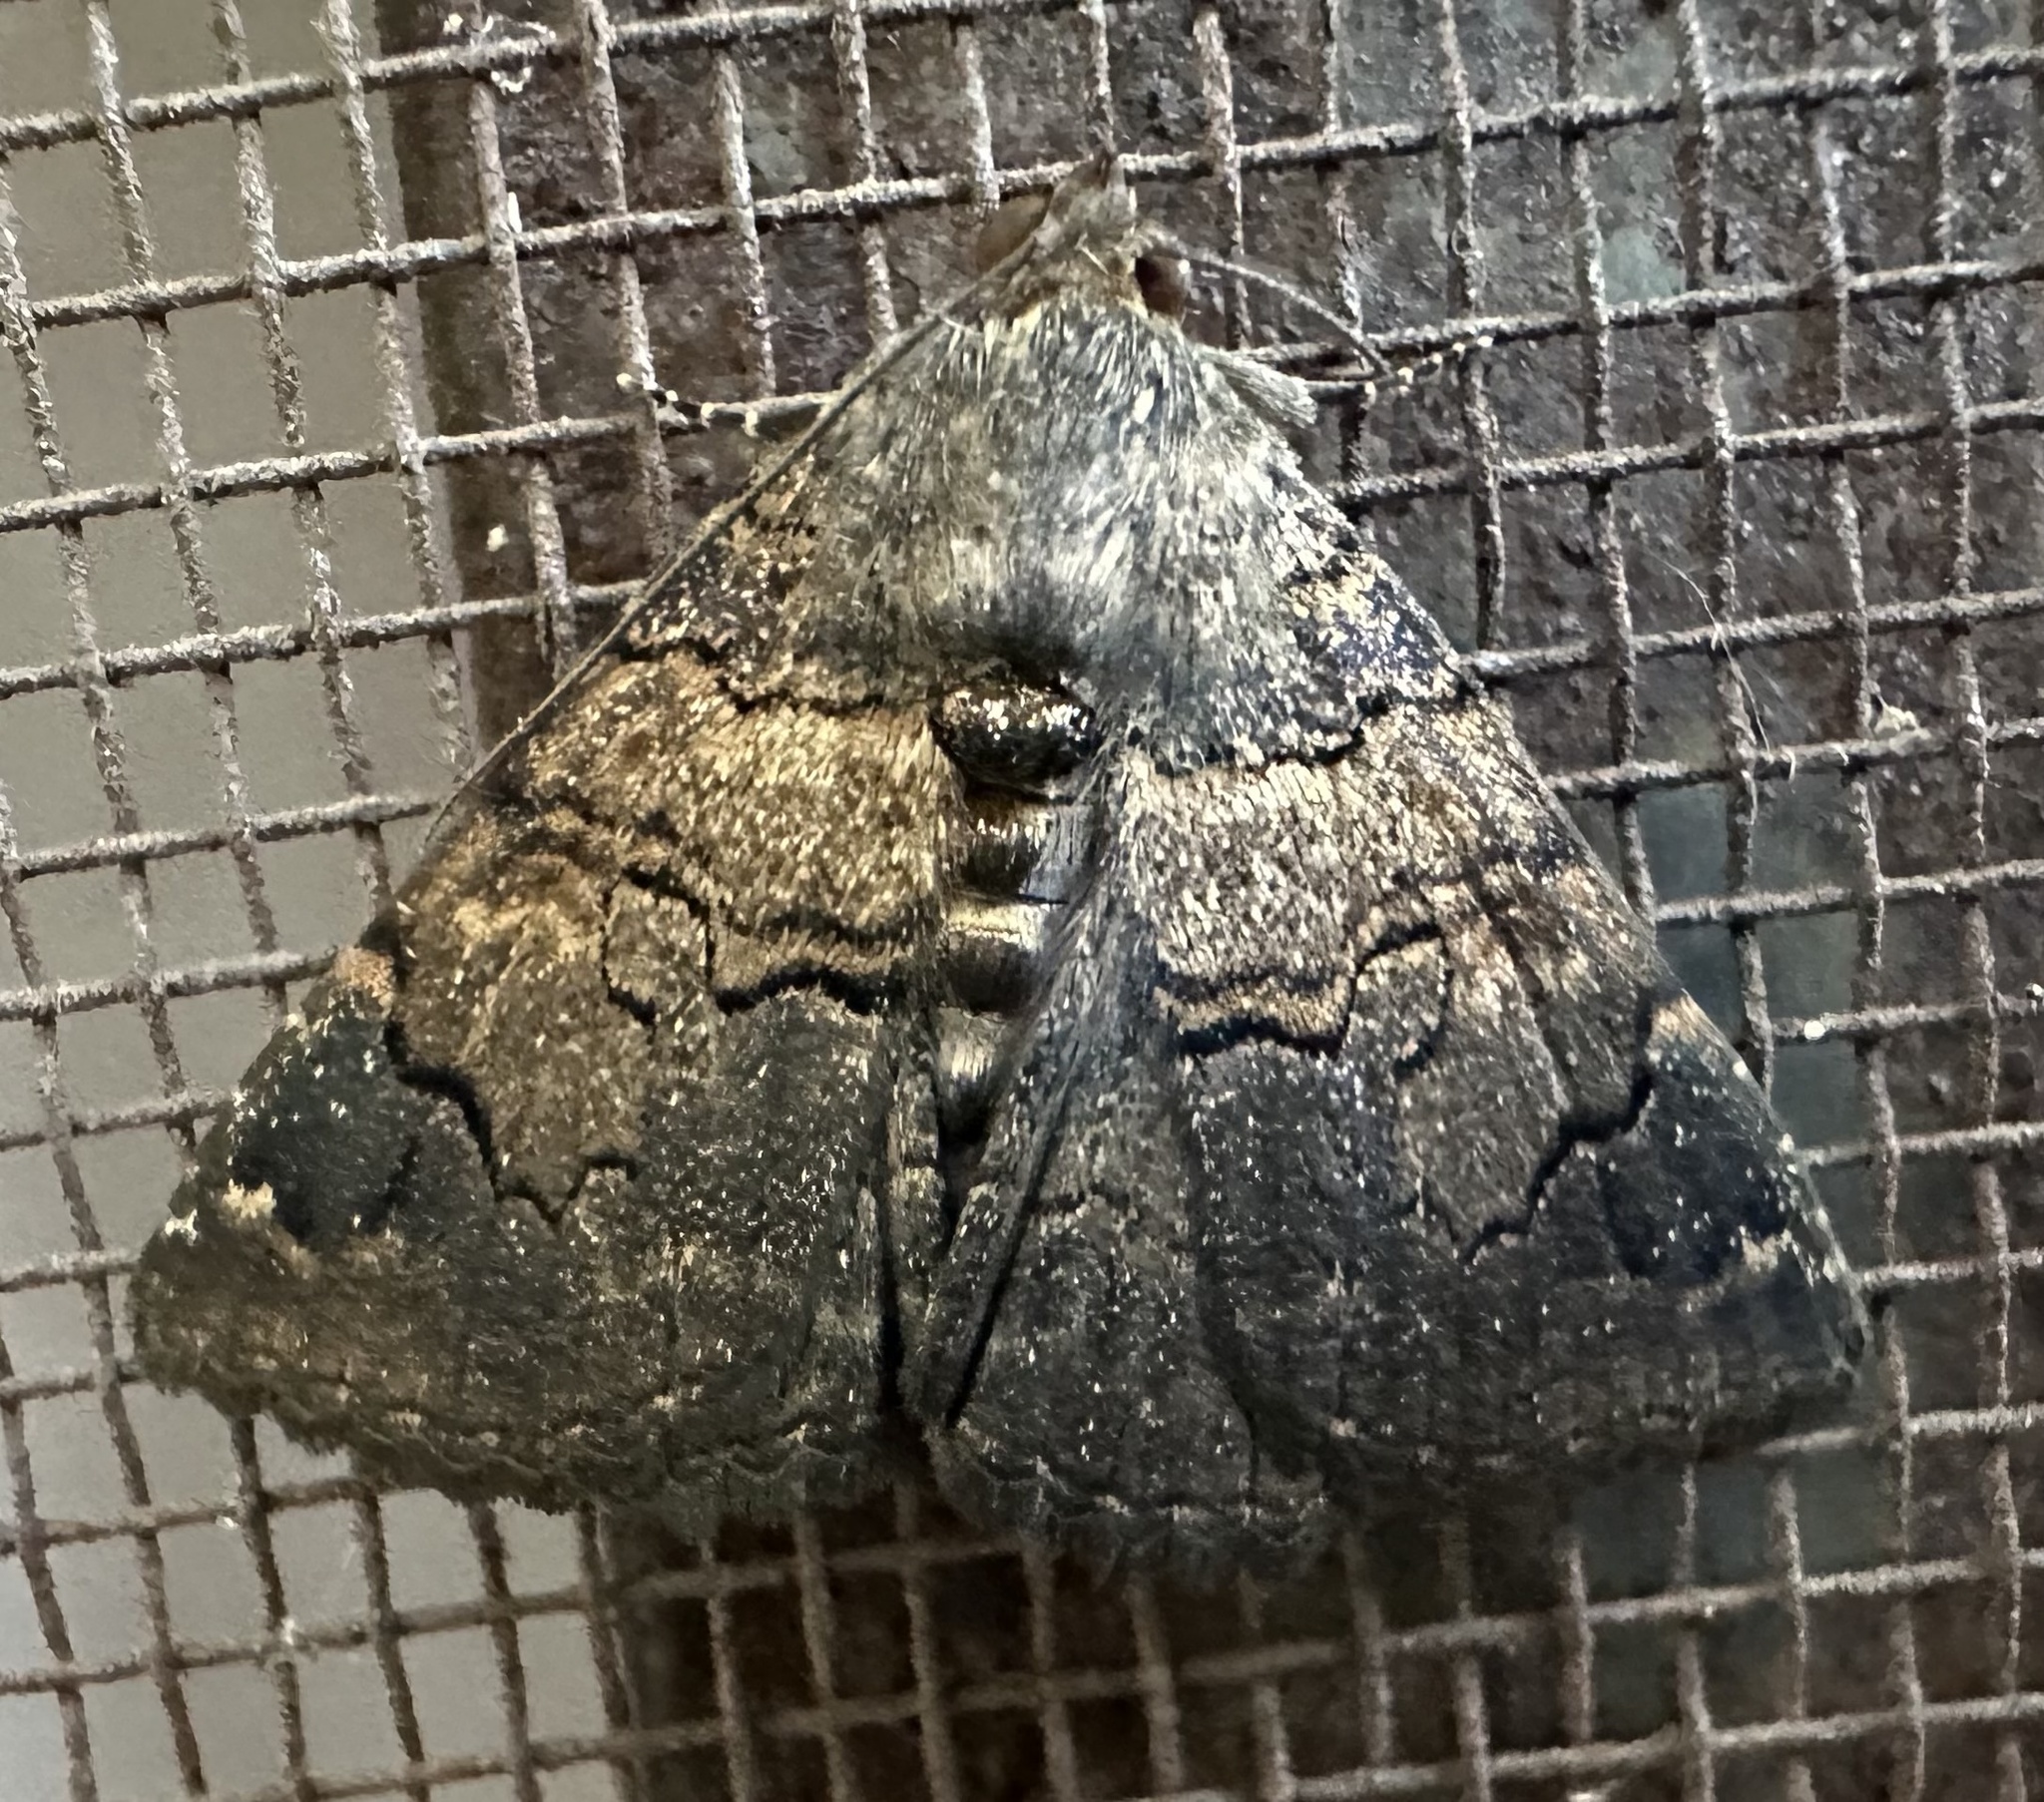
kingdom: Animalia
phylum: Arthropoda
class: Insecta
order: Lepidoptera
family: Erebidae
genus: Diatenes
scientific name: Diatenes chalybescens
